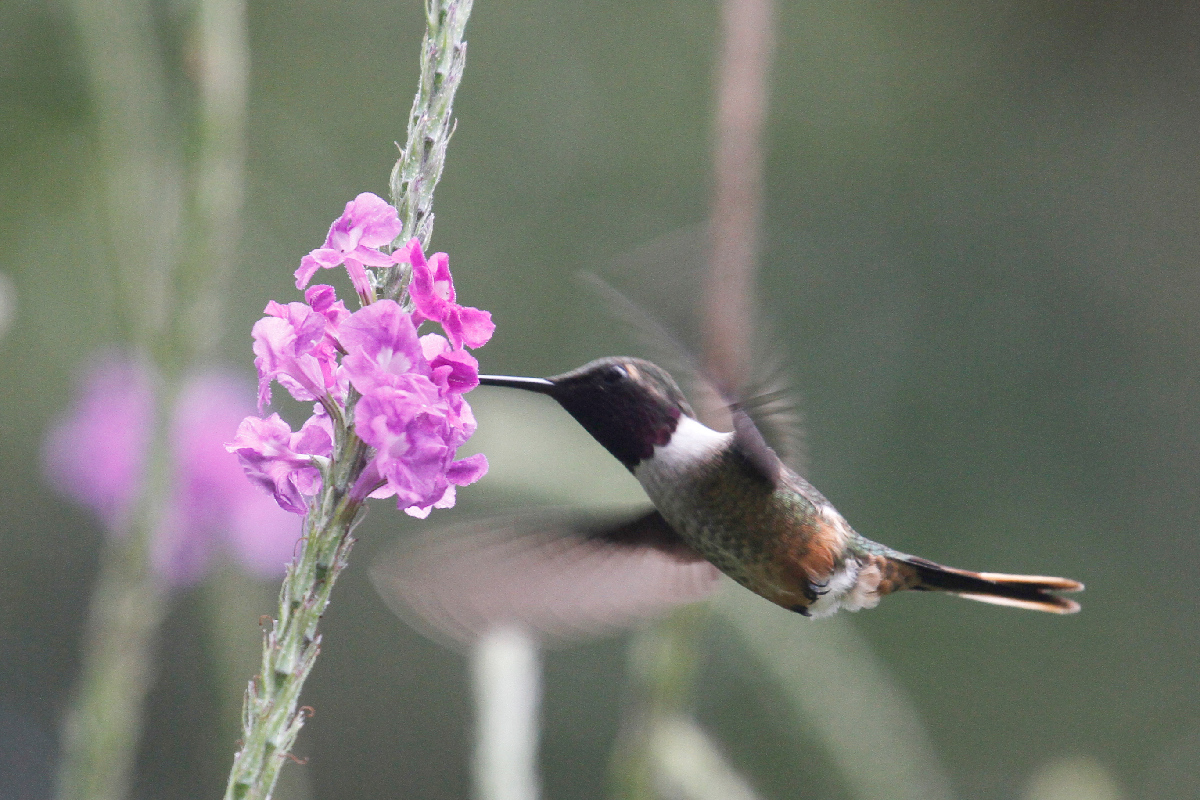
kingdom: Animalia
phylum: Chordata
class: Aves
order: Apodiformes
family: Trochilidae
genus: Calliphlox
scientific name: Calliphlox bryantae
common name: Magenta-throated woodstar
